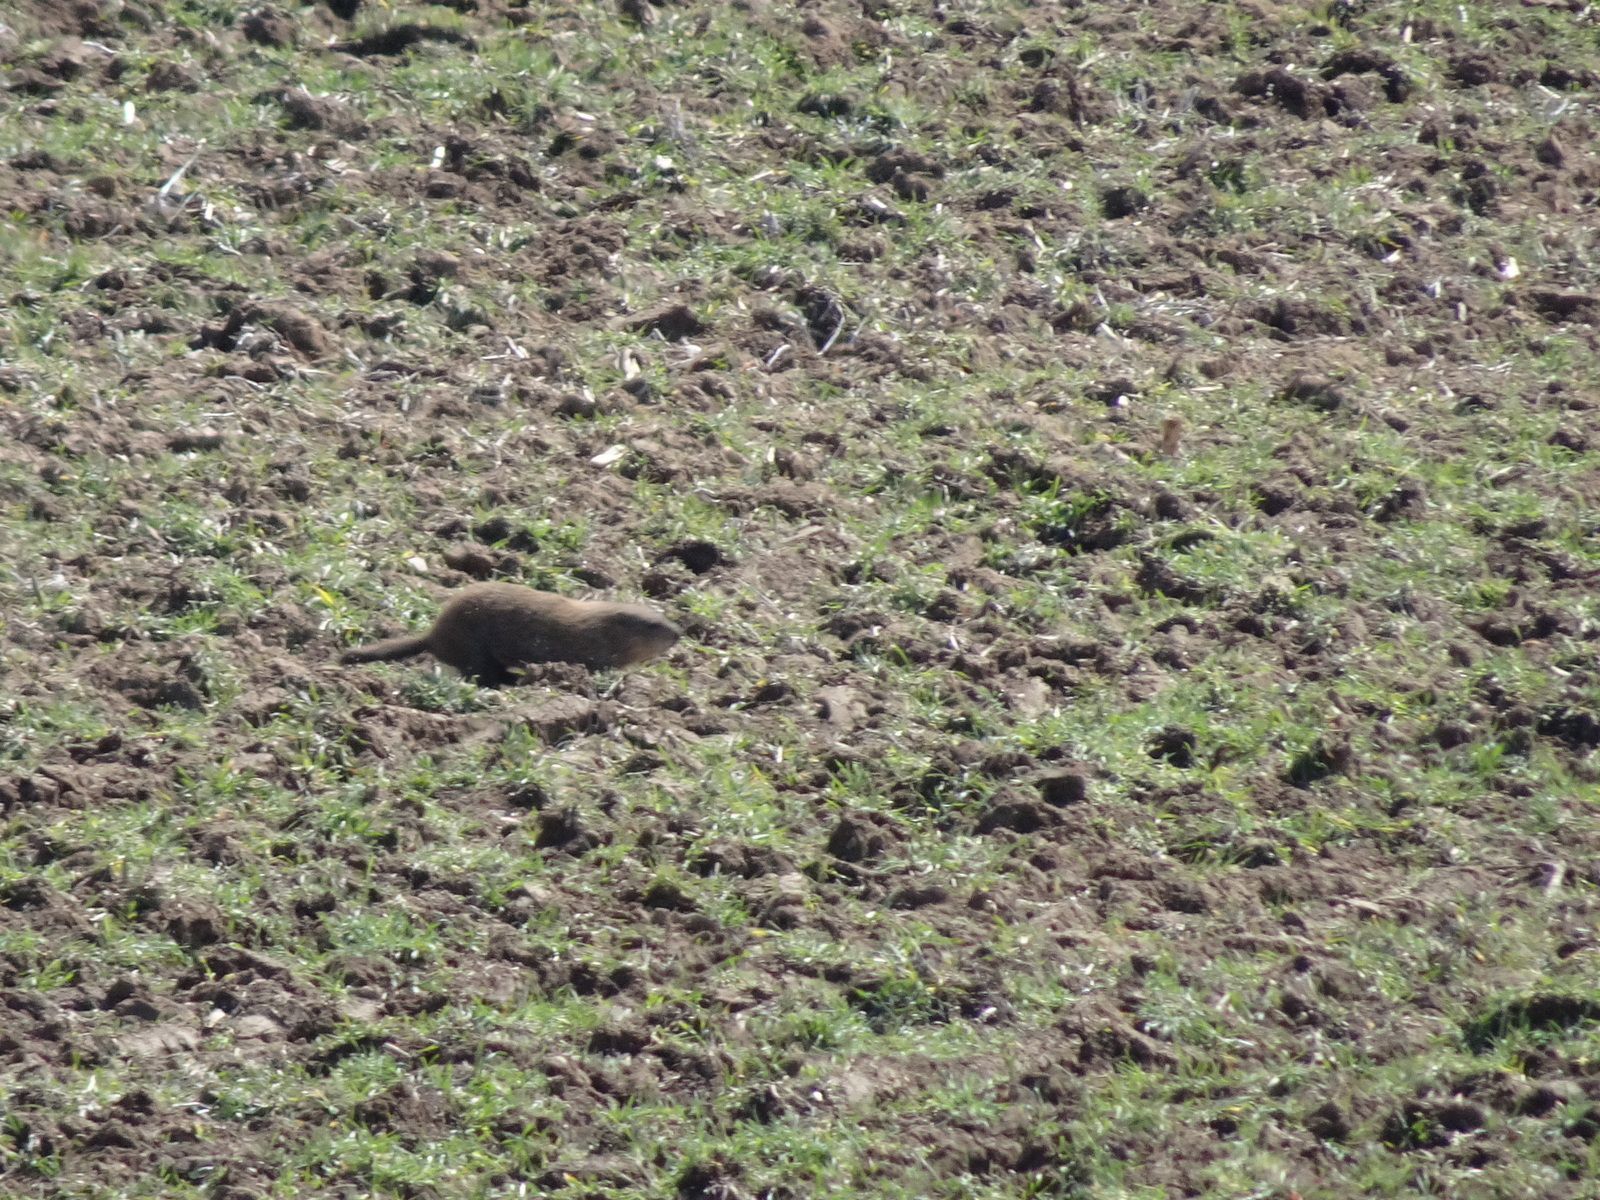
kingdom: Animalia
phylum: Chordata
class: Mammalia
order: Rodentia
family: Sciuridae
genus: Marmota
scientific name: Marmota monax
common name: Groundhog
